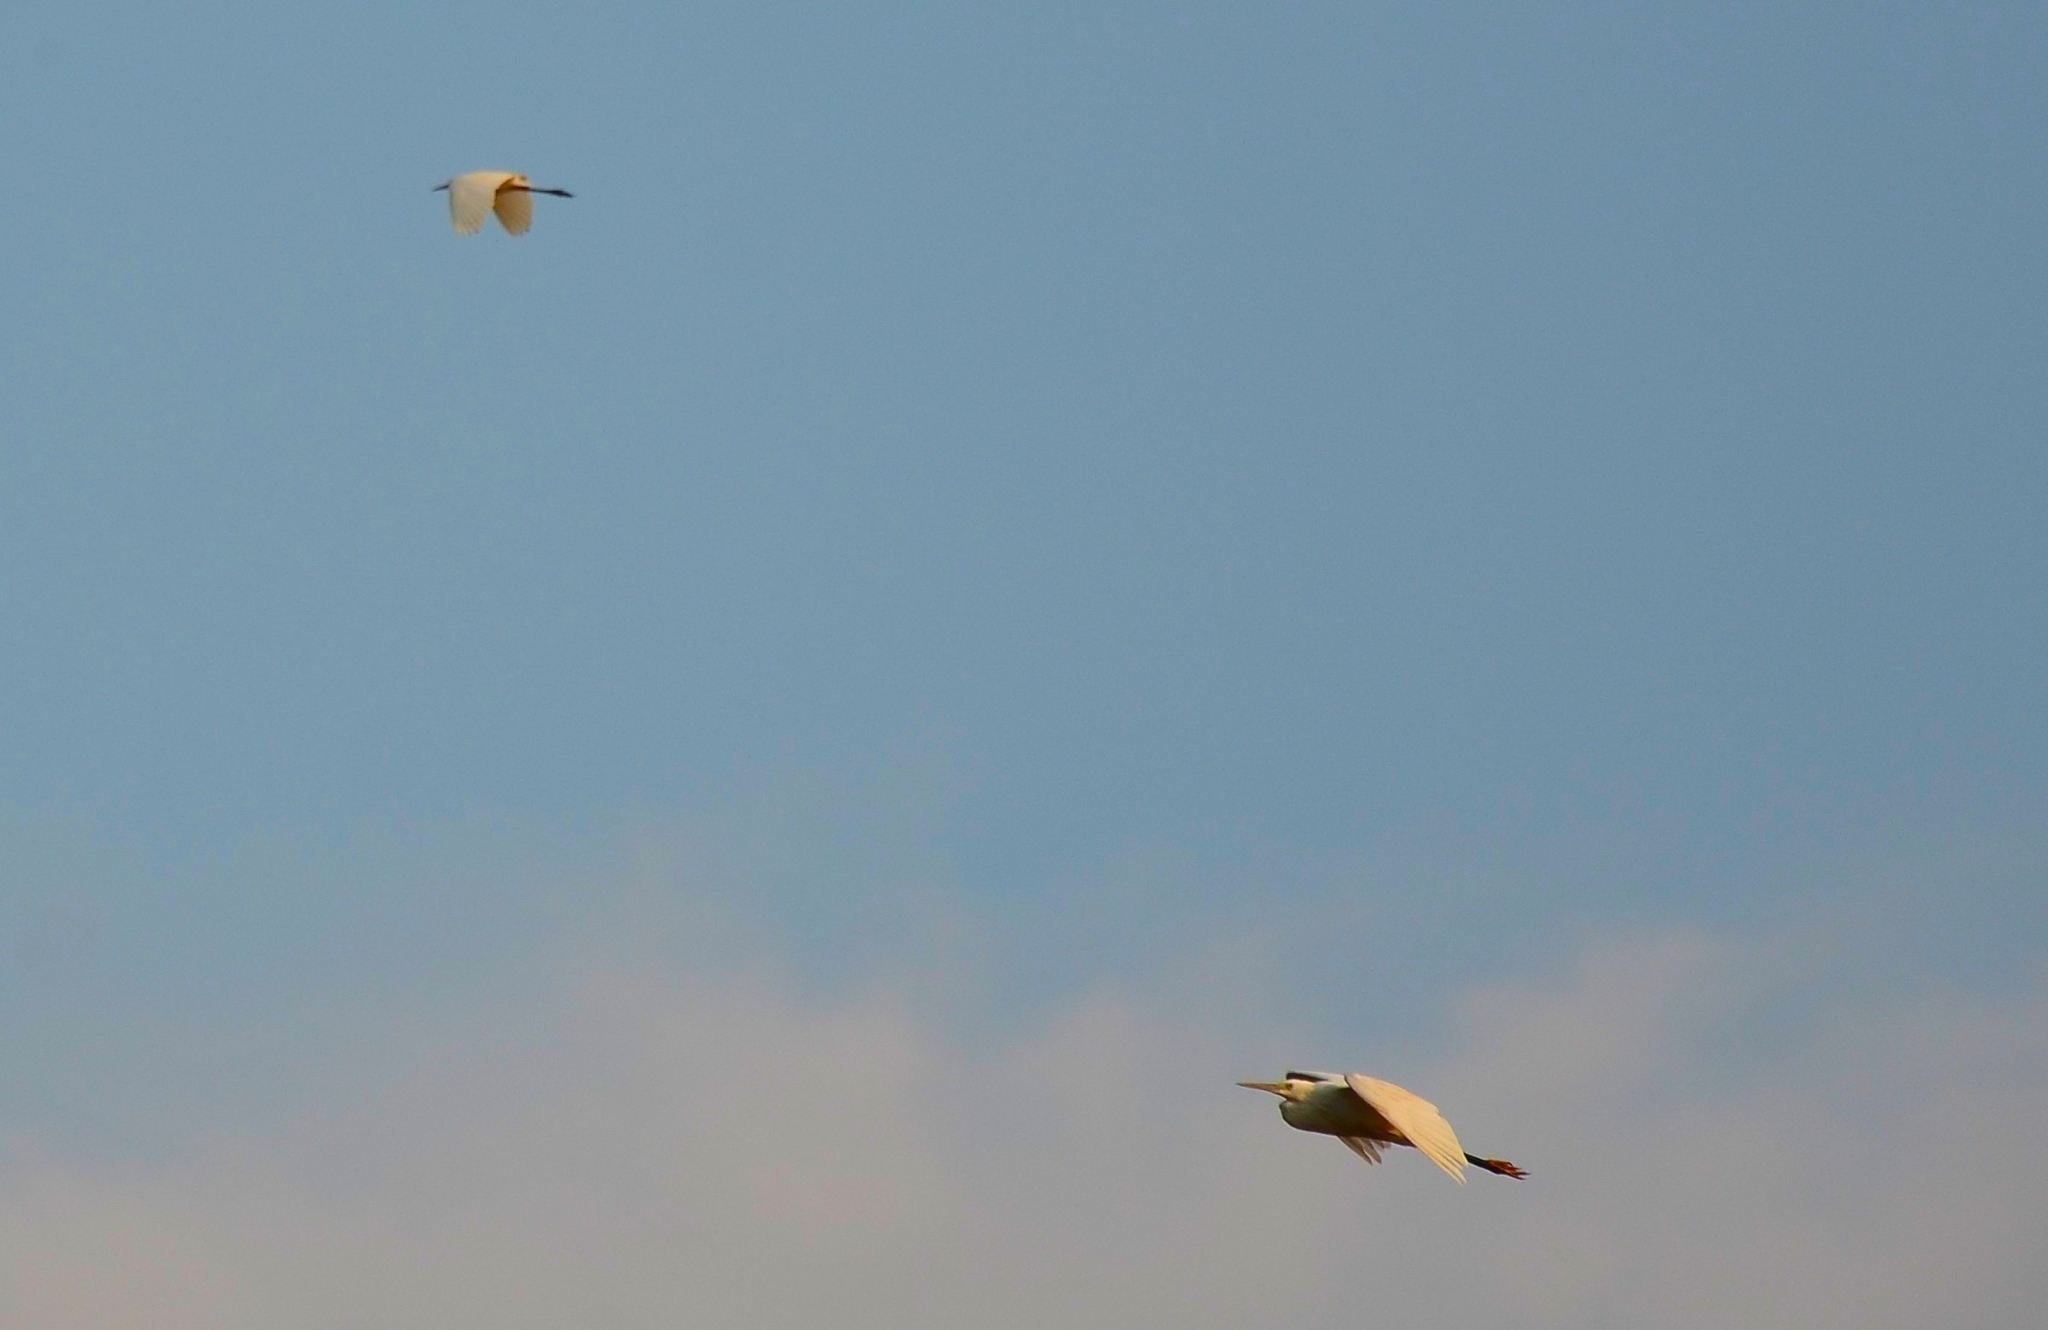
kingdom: Animalia
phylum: Chordata
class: Aves
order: Pelecaniformes
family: Ardeidae
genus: Egretta
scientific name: Egretta garzetta
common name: Little egret
